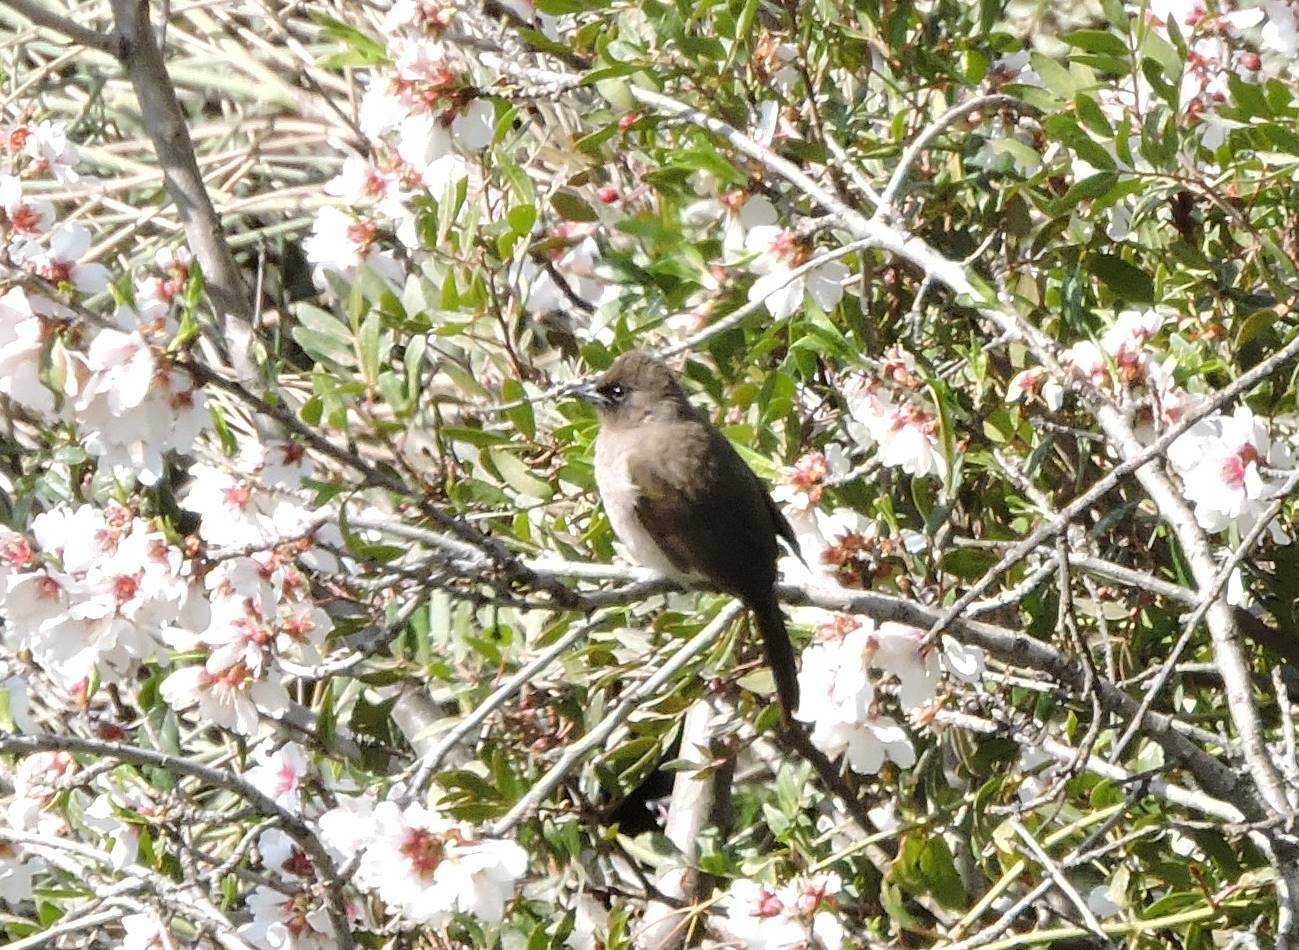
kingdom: Animalia
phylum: Chordata
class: Aves
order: Passeriformes
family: Pycnonotidae
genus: Pycnonotus
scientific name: Pycnonotus barbatus
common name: Common bulbul
